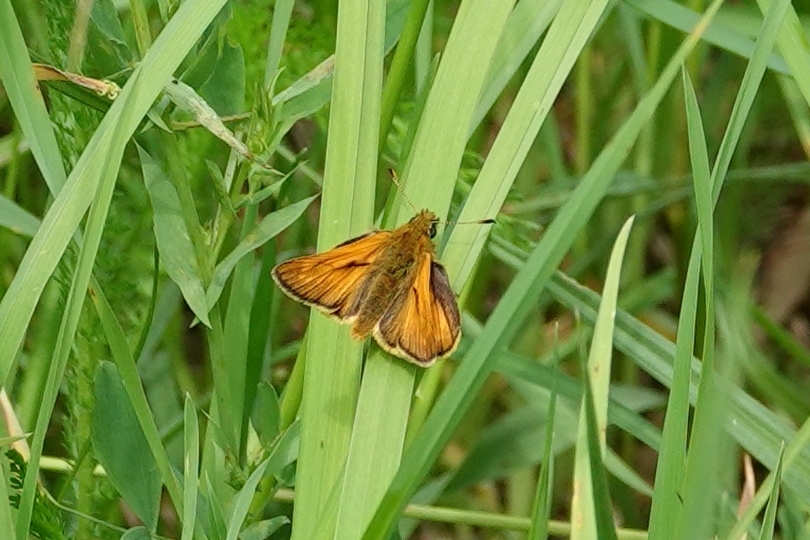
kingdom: Animalia
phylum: Arthropoda
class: Insecta
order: Lepidoptera
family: Hesperiidae
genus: Ochlodes
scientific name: Ochlodes venata
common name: Large skipper
